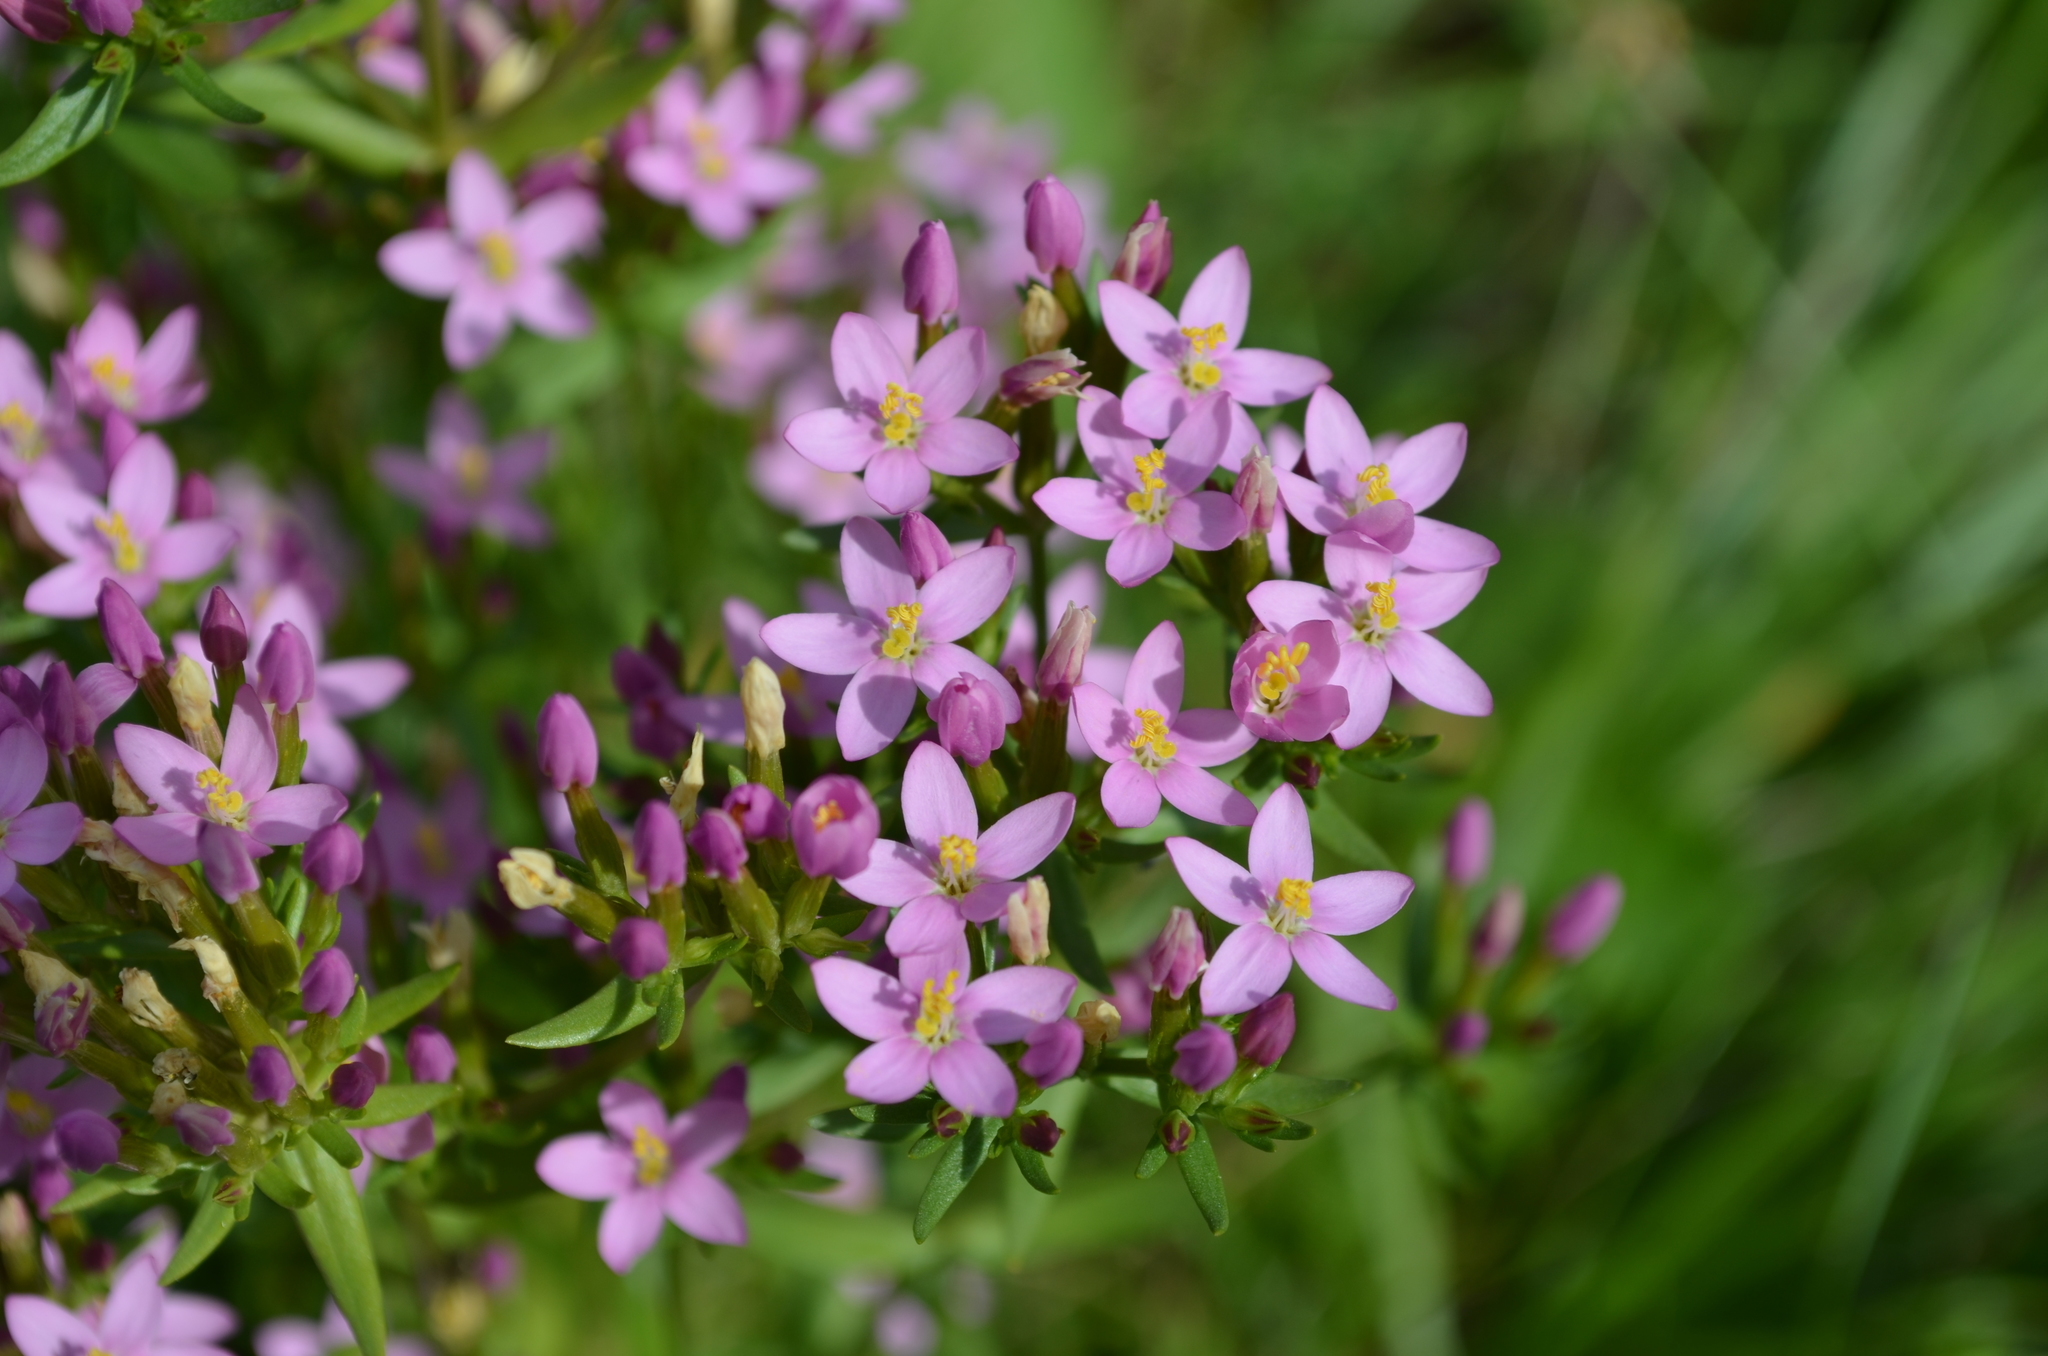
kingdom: Plantae
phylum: Tracheophyta
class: Magnoliopsida
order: Gentianales
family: Gentianaceae
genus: Centaurium
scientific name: Centaurium erythraea
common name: Common centaury
